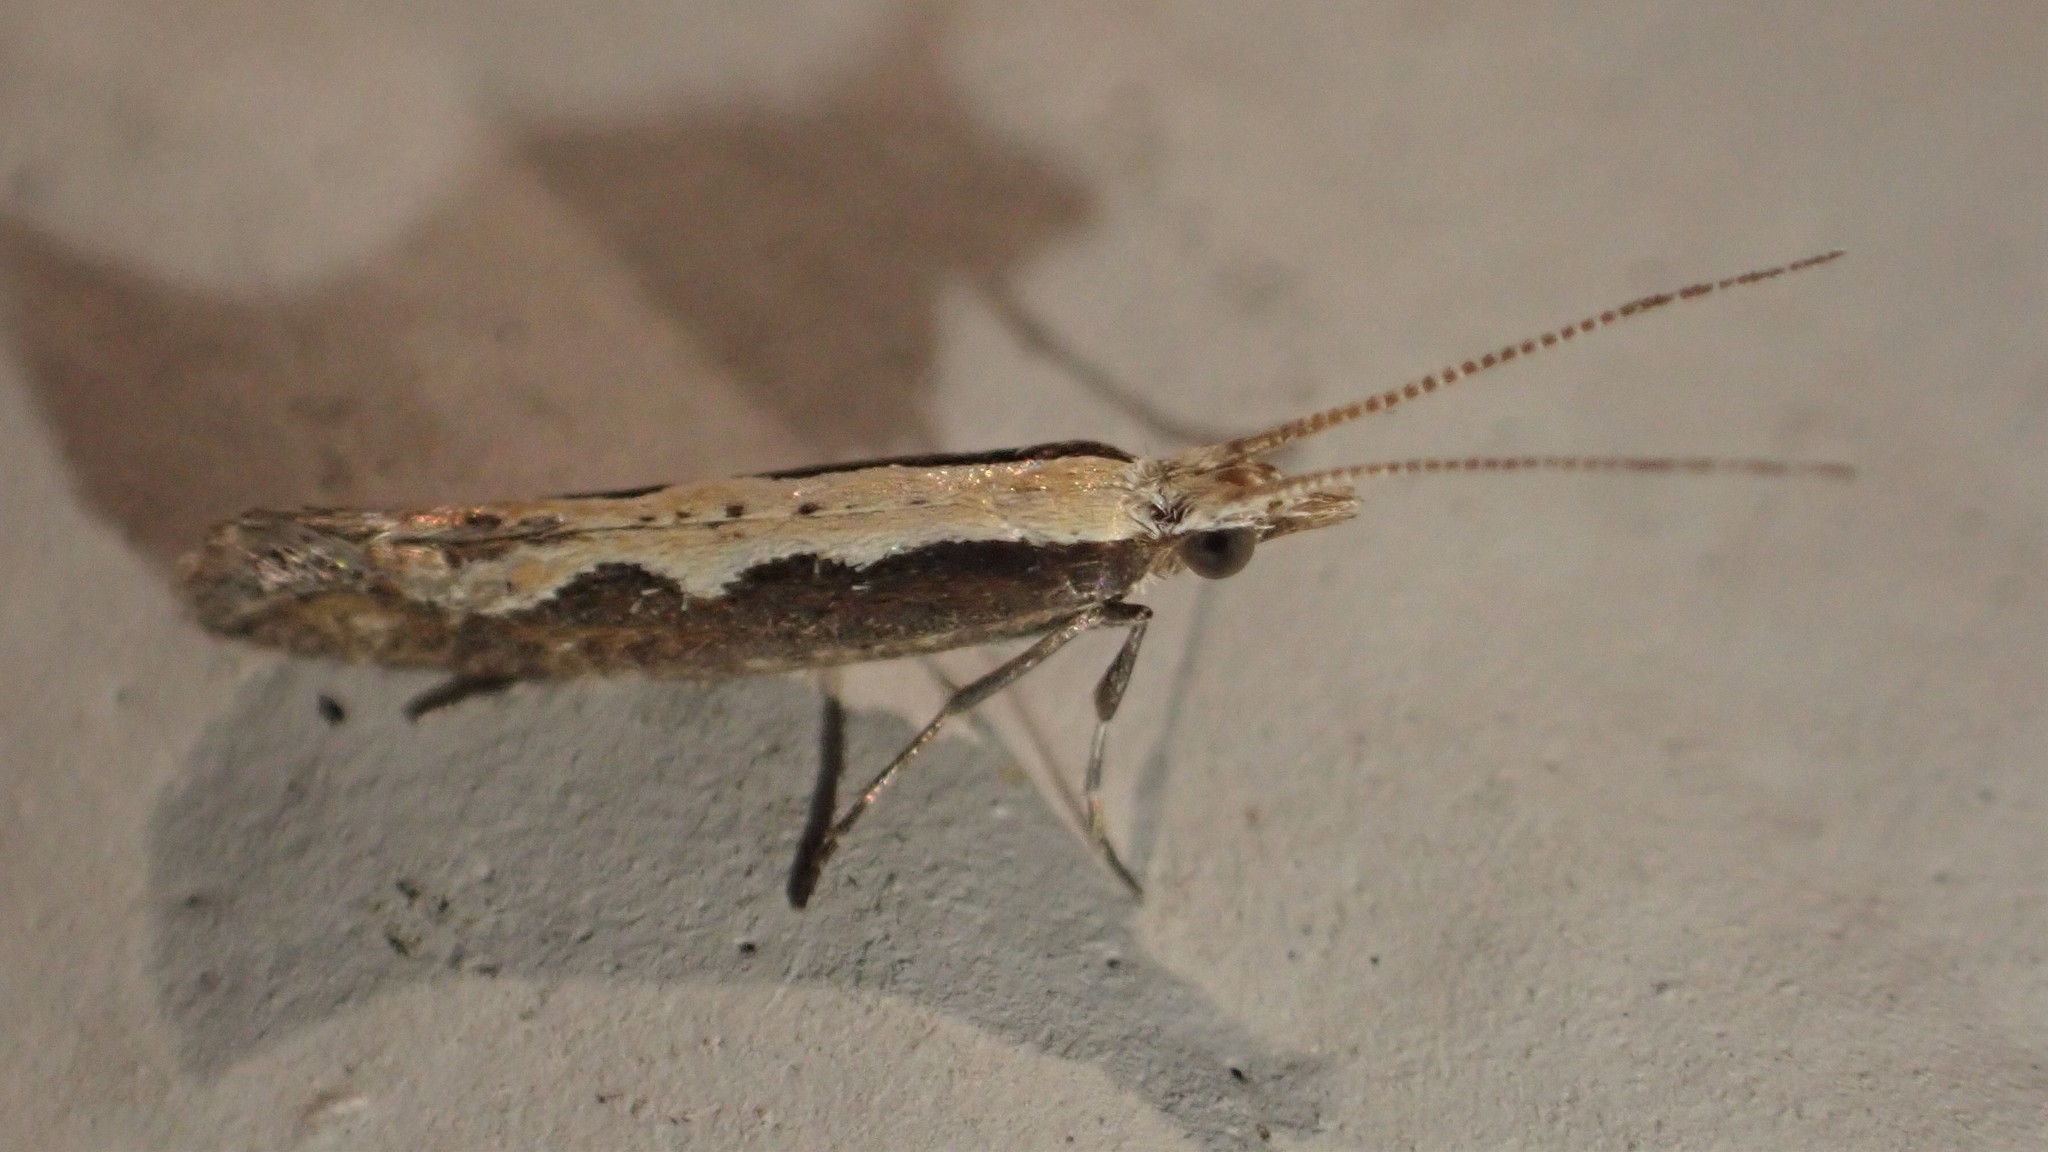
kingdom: Animalia
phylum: Arthropoda
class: Insecta
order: Lepidoptera
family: Plutellidae
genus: Plutella
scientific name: Plutella xylostella
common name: Diamond-back moth
